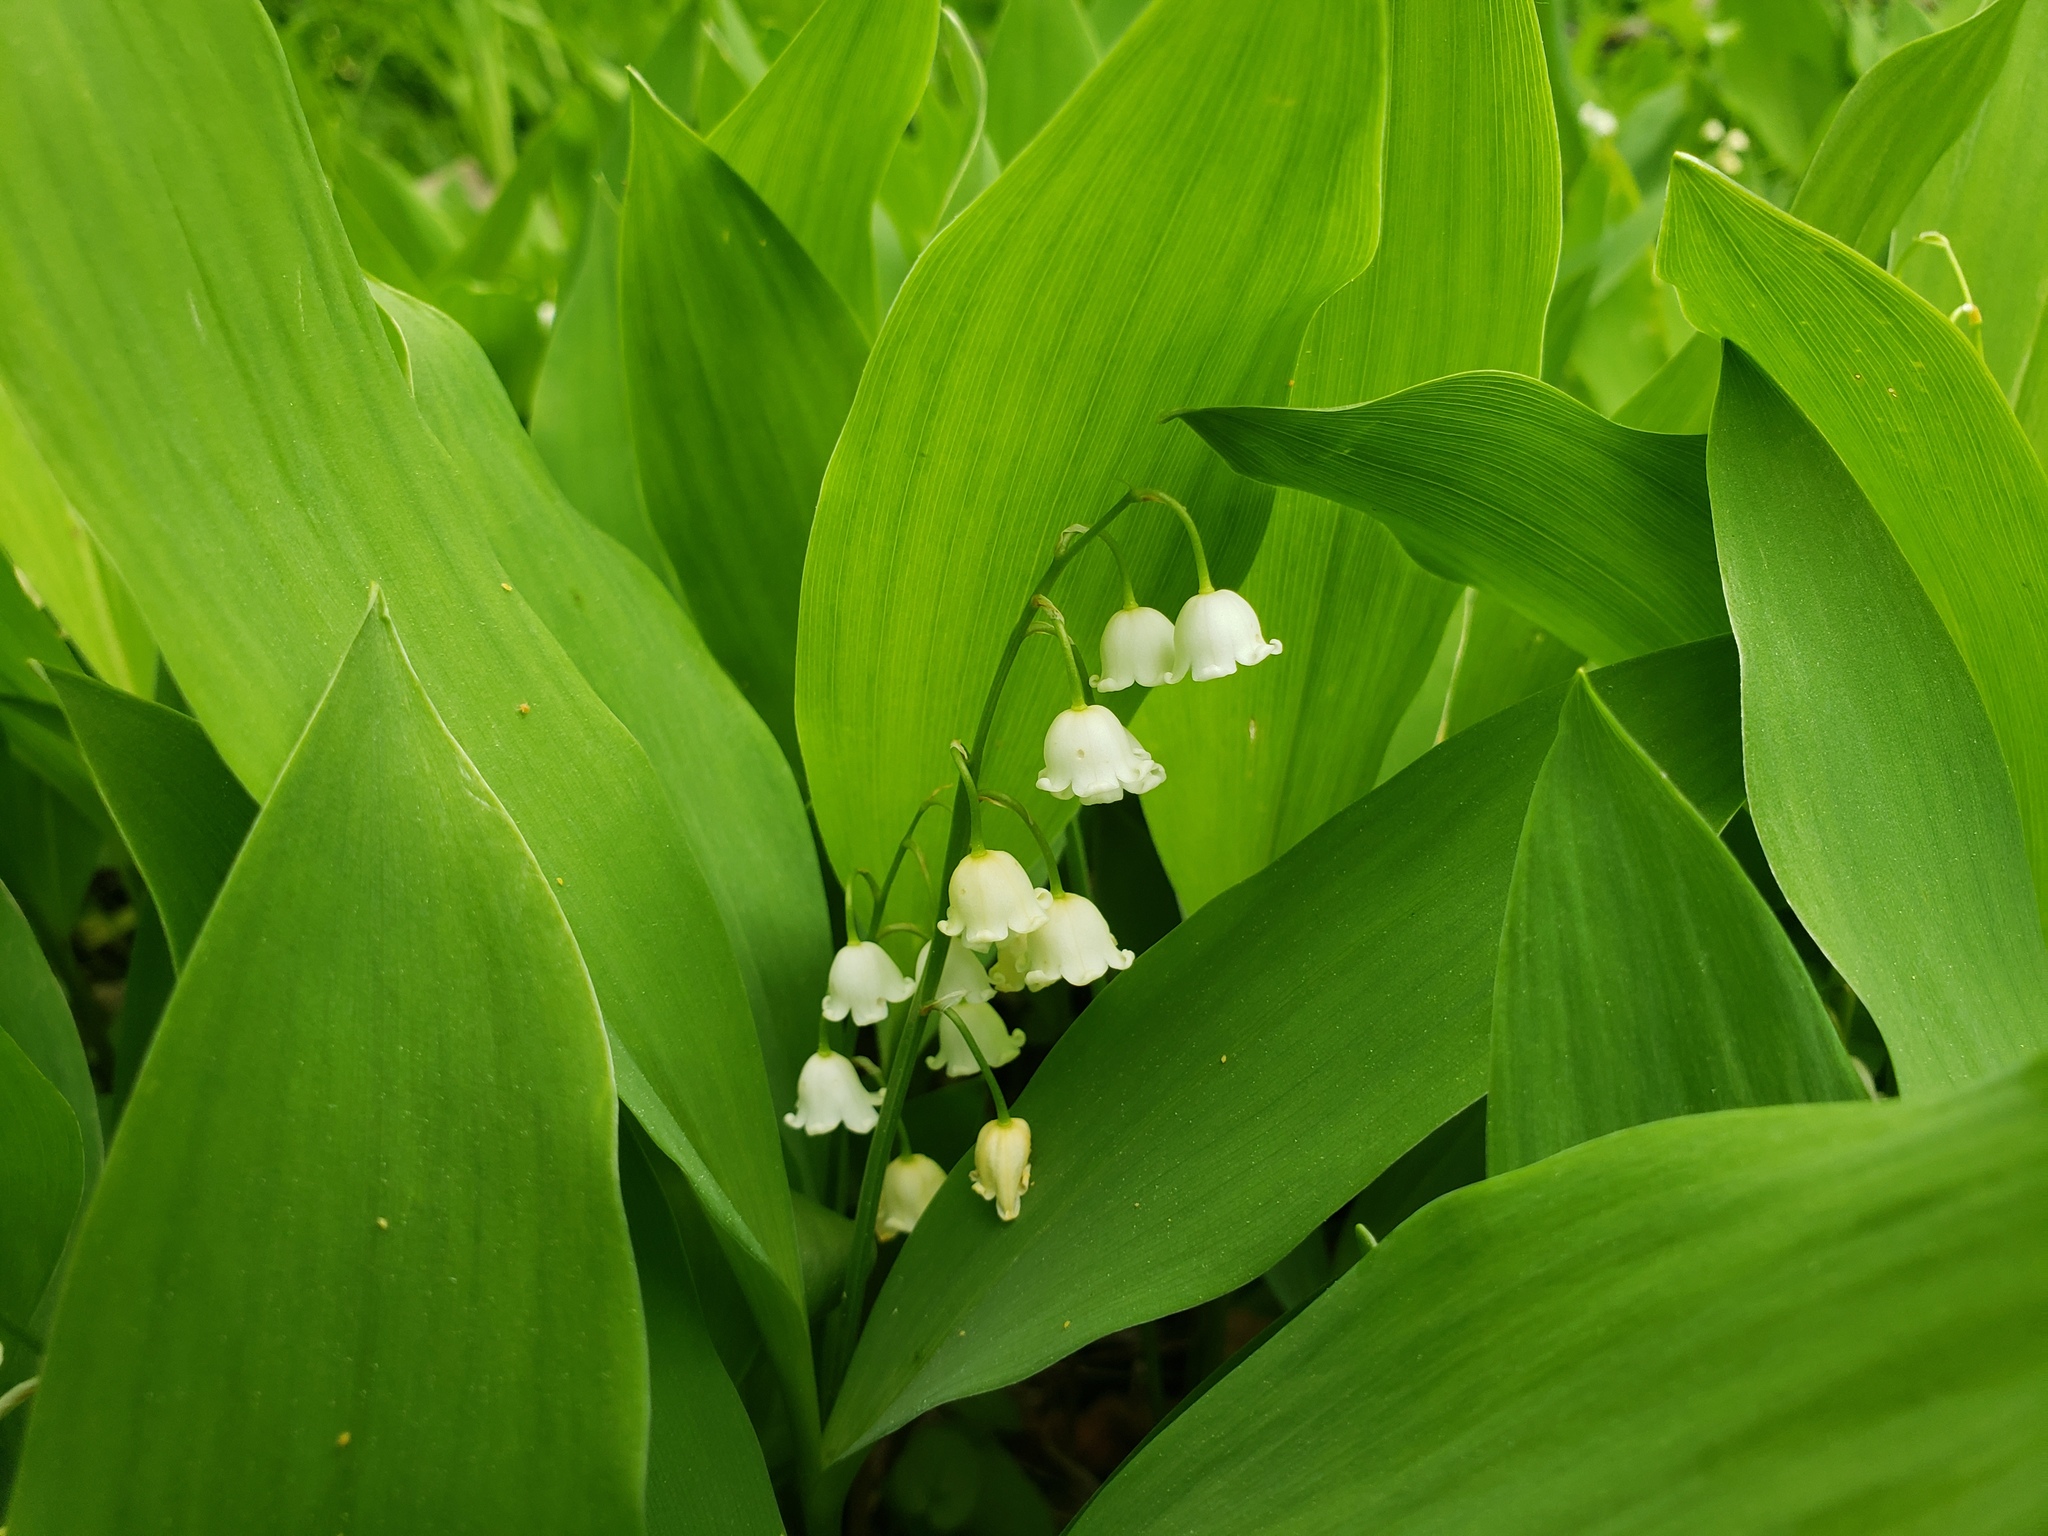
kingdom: Plantae
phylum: Tracheophyta
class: Liliopsida
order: Asparagales
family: Asparagaceae
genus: Convallaria
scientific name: Convallaria majalis
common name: Lily-of-the-valley
